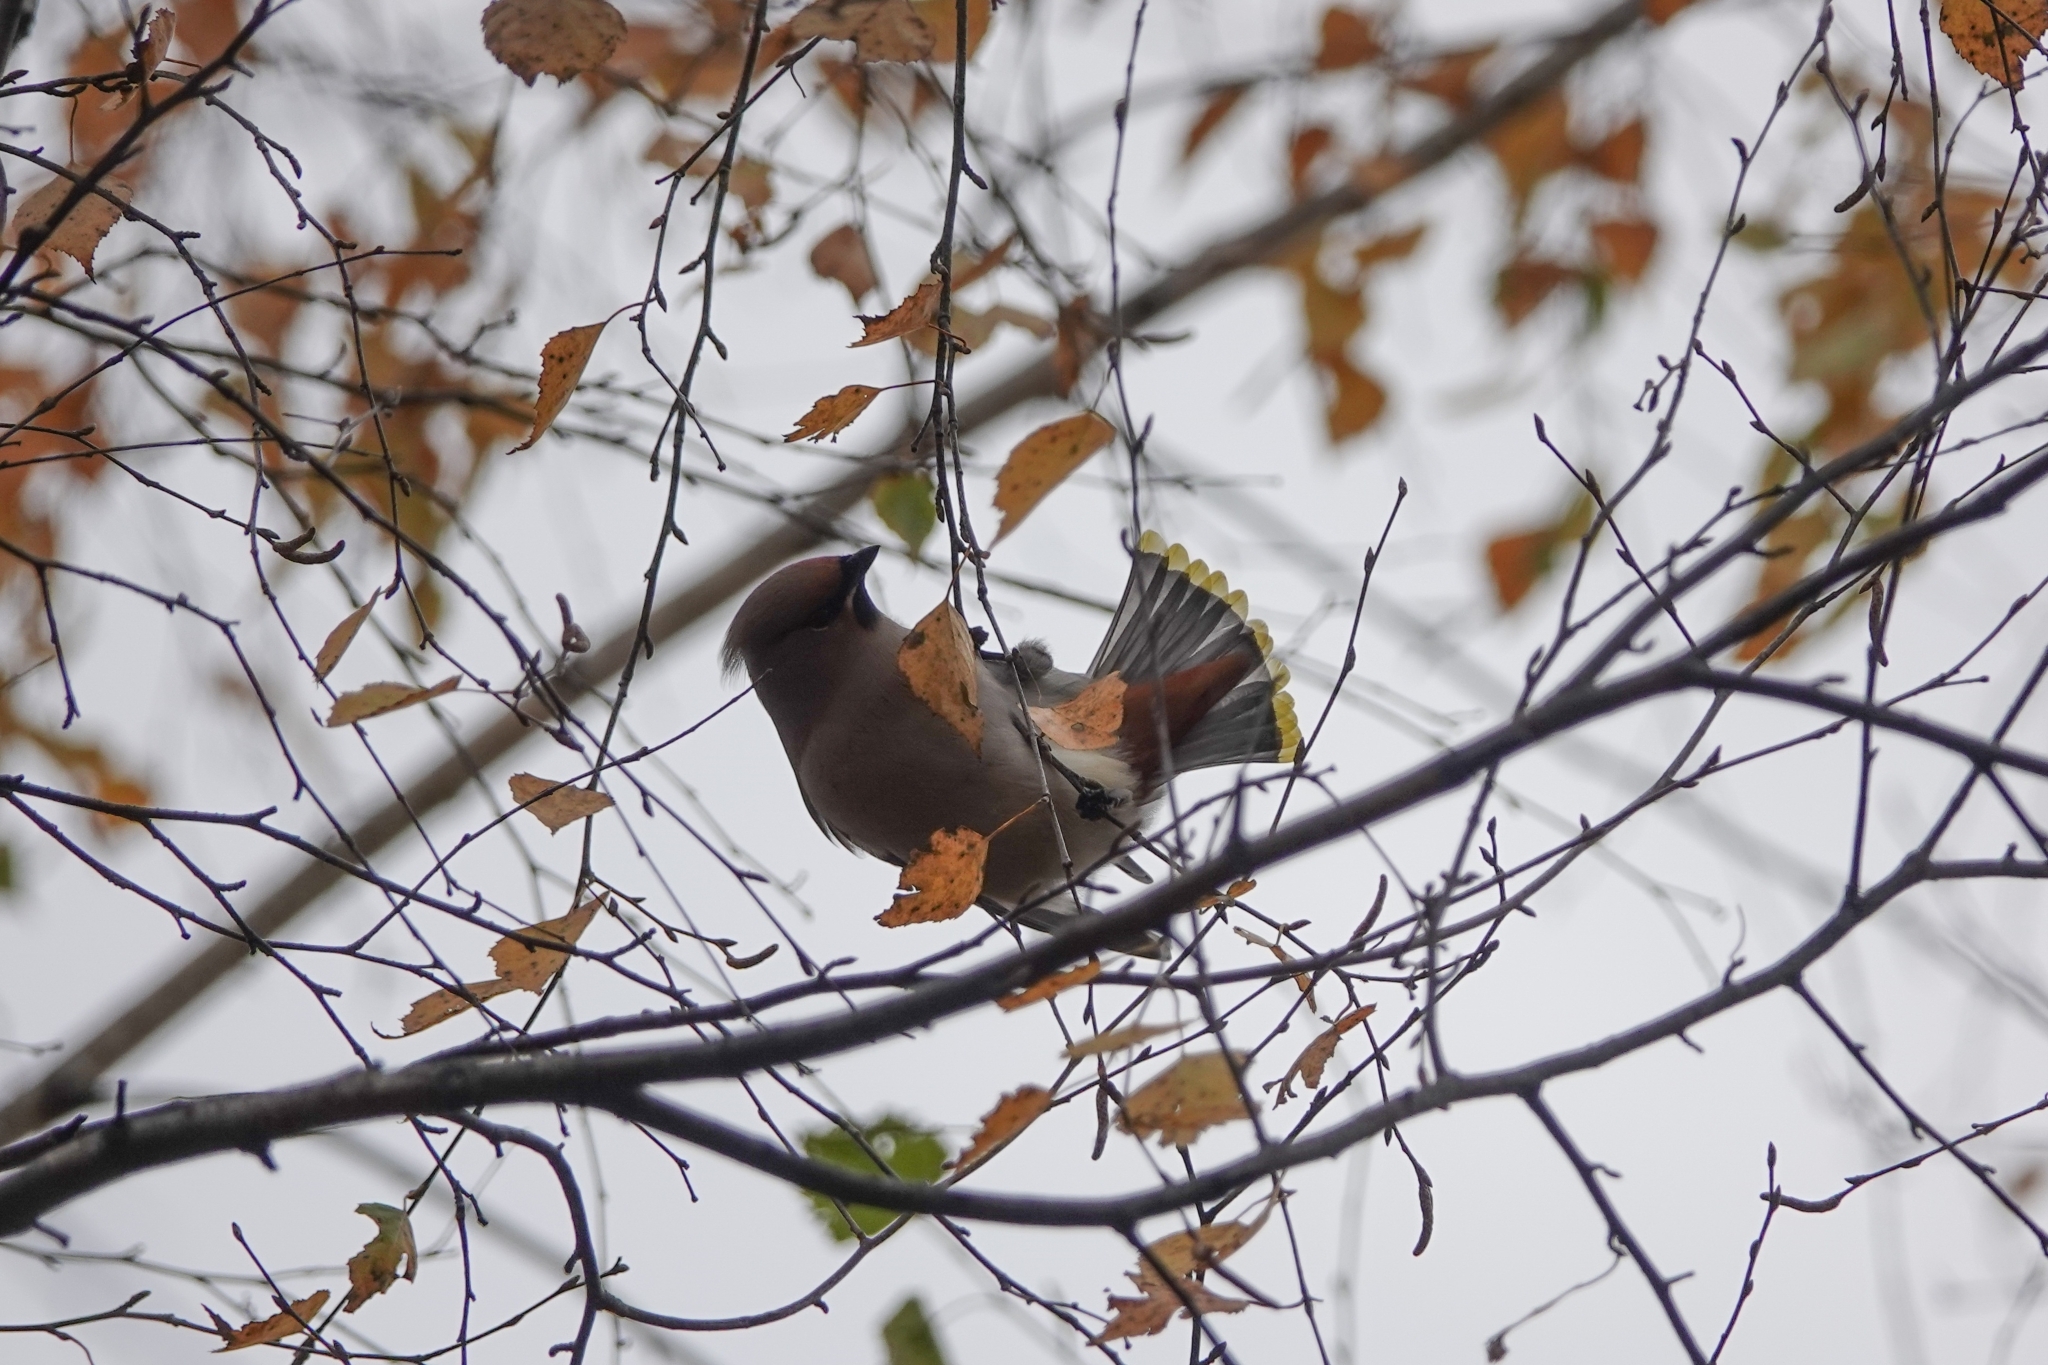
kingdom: Animalia
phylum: Chordata
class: Aves
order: Passeriformes
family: Bombycillidae
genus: Bombycilla
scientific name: Bombycilla garrulus
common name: Bohemian waxwing
